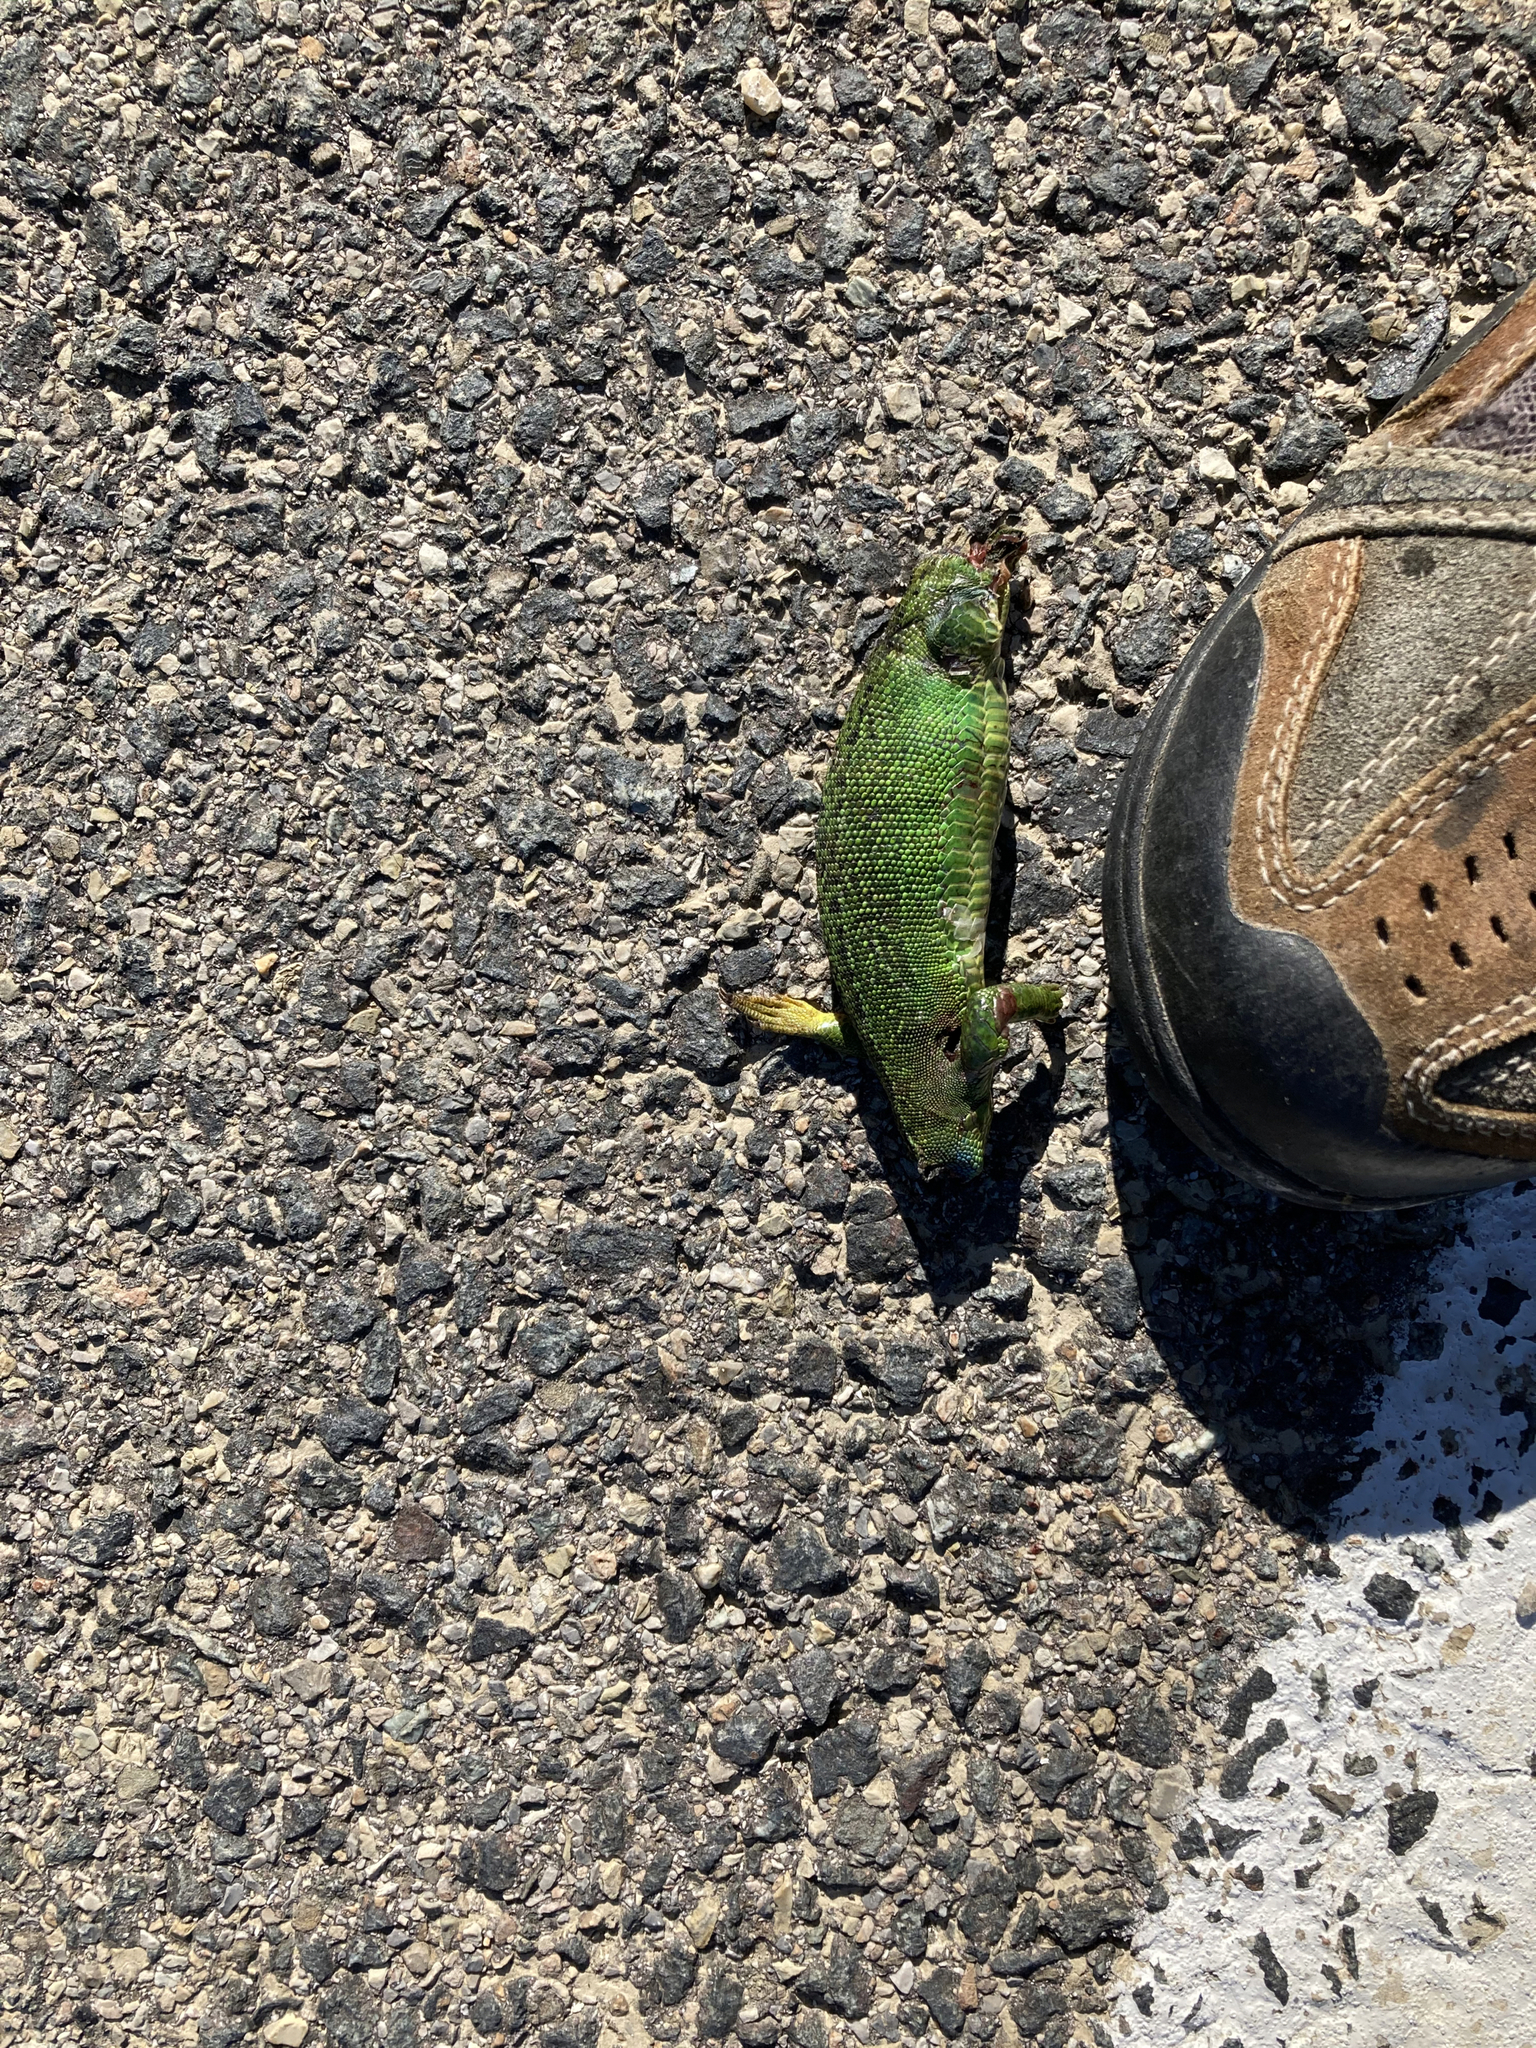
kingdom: Animalia
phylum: Chordata
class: Squamata
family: Lacertidae
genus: Lacerta
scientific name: Lacerta bilineata
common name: Western green lizard
